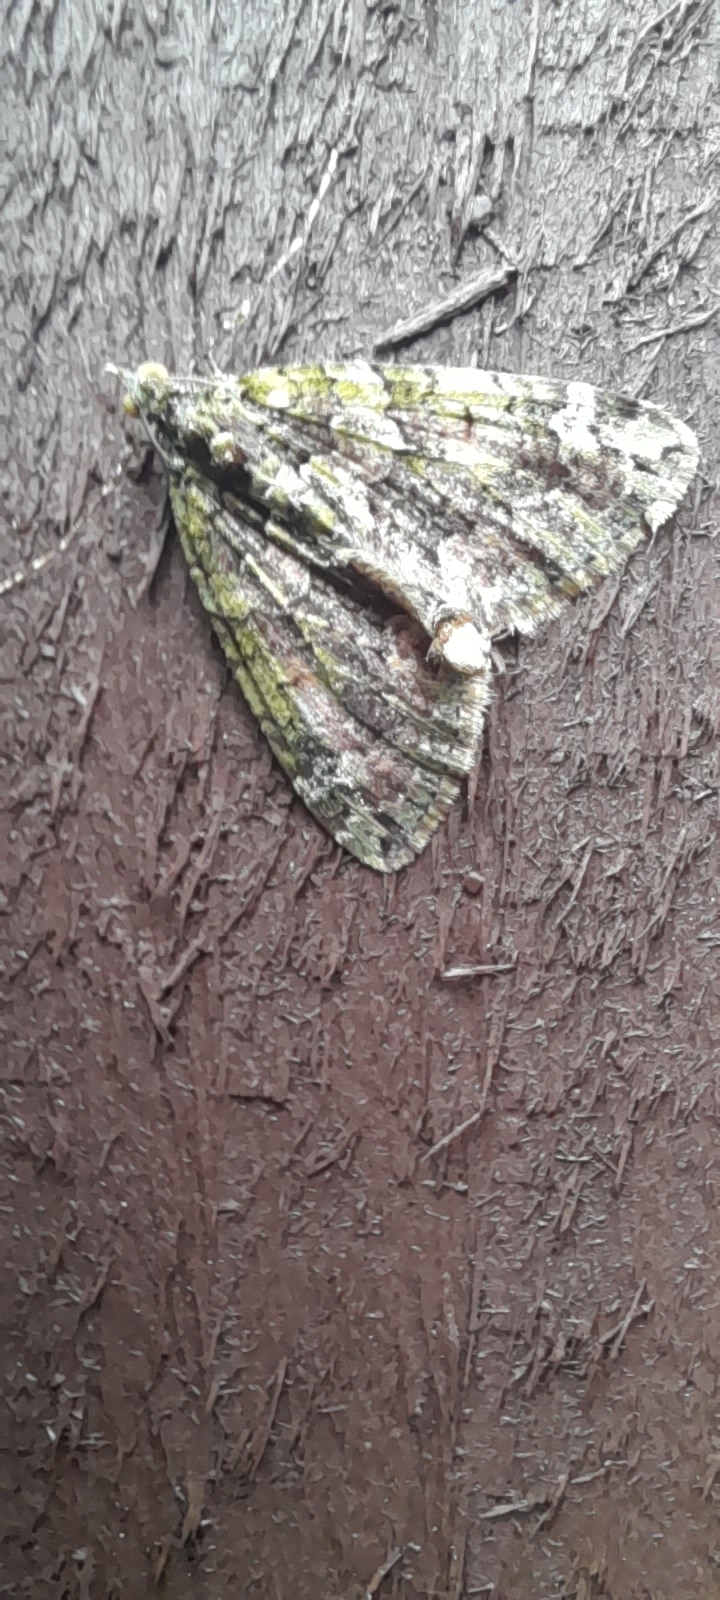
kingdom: Animalia
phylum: Arthropoda
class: Insecta
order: Lepidoptera
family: Geometridae
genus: Chloroclysta
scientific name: Chloroclysta siterata
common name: Red-green carpet
